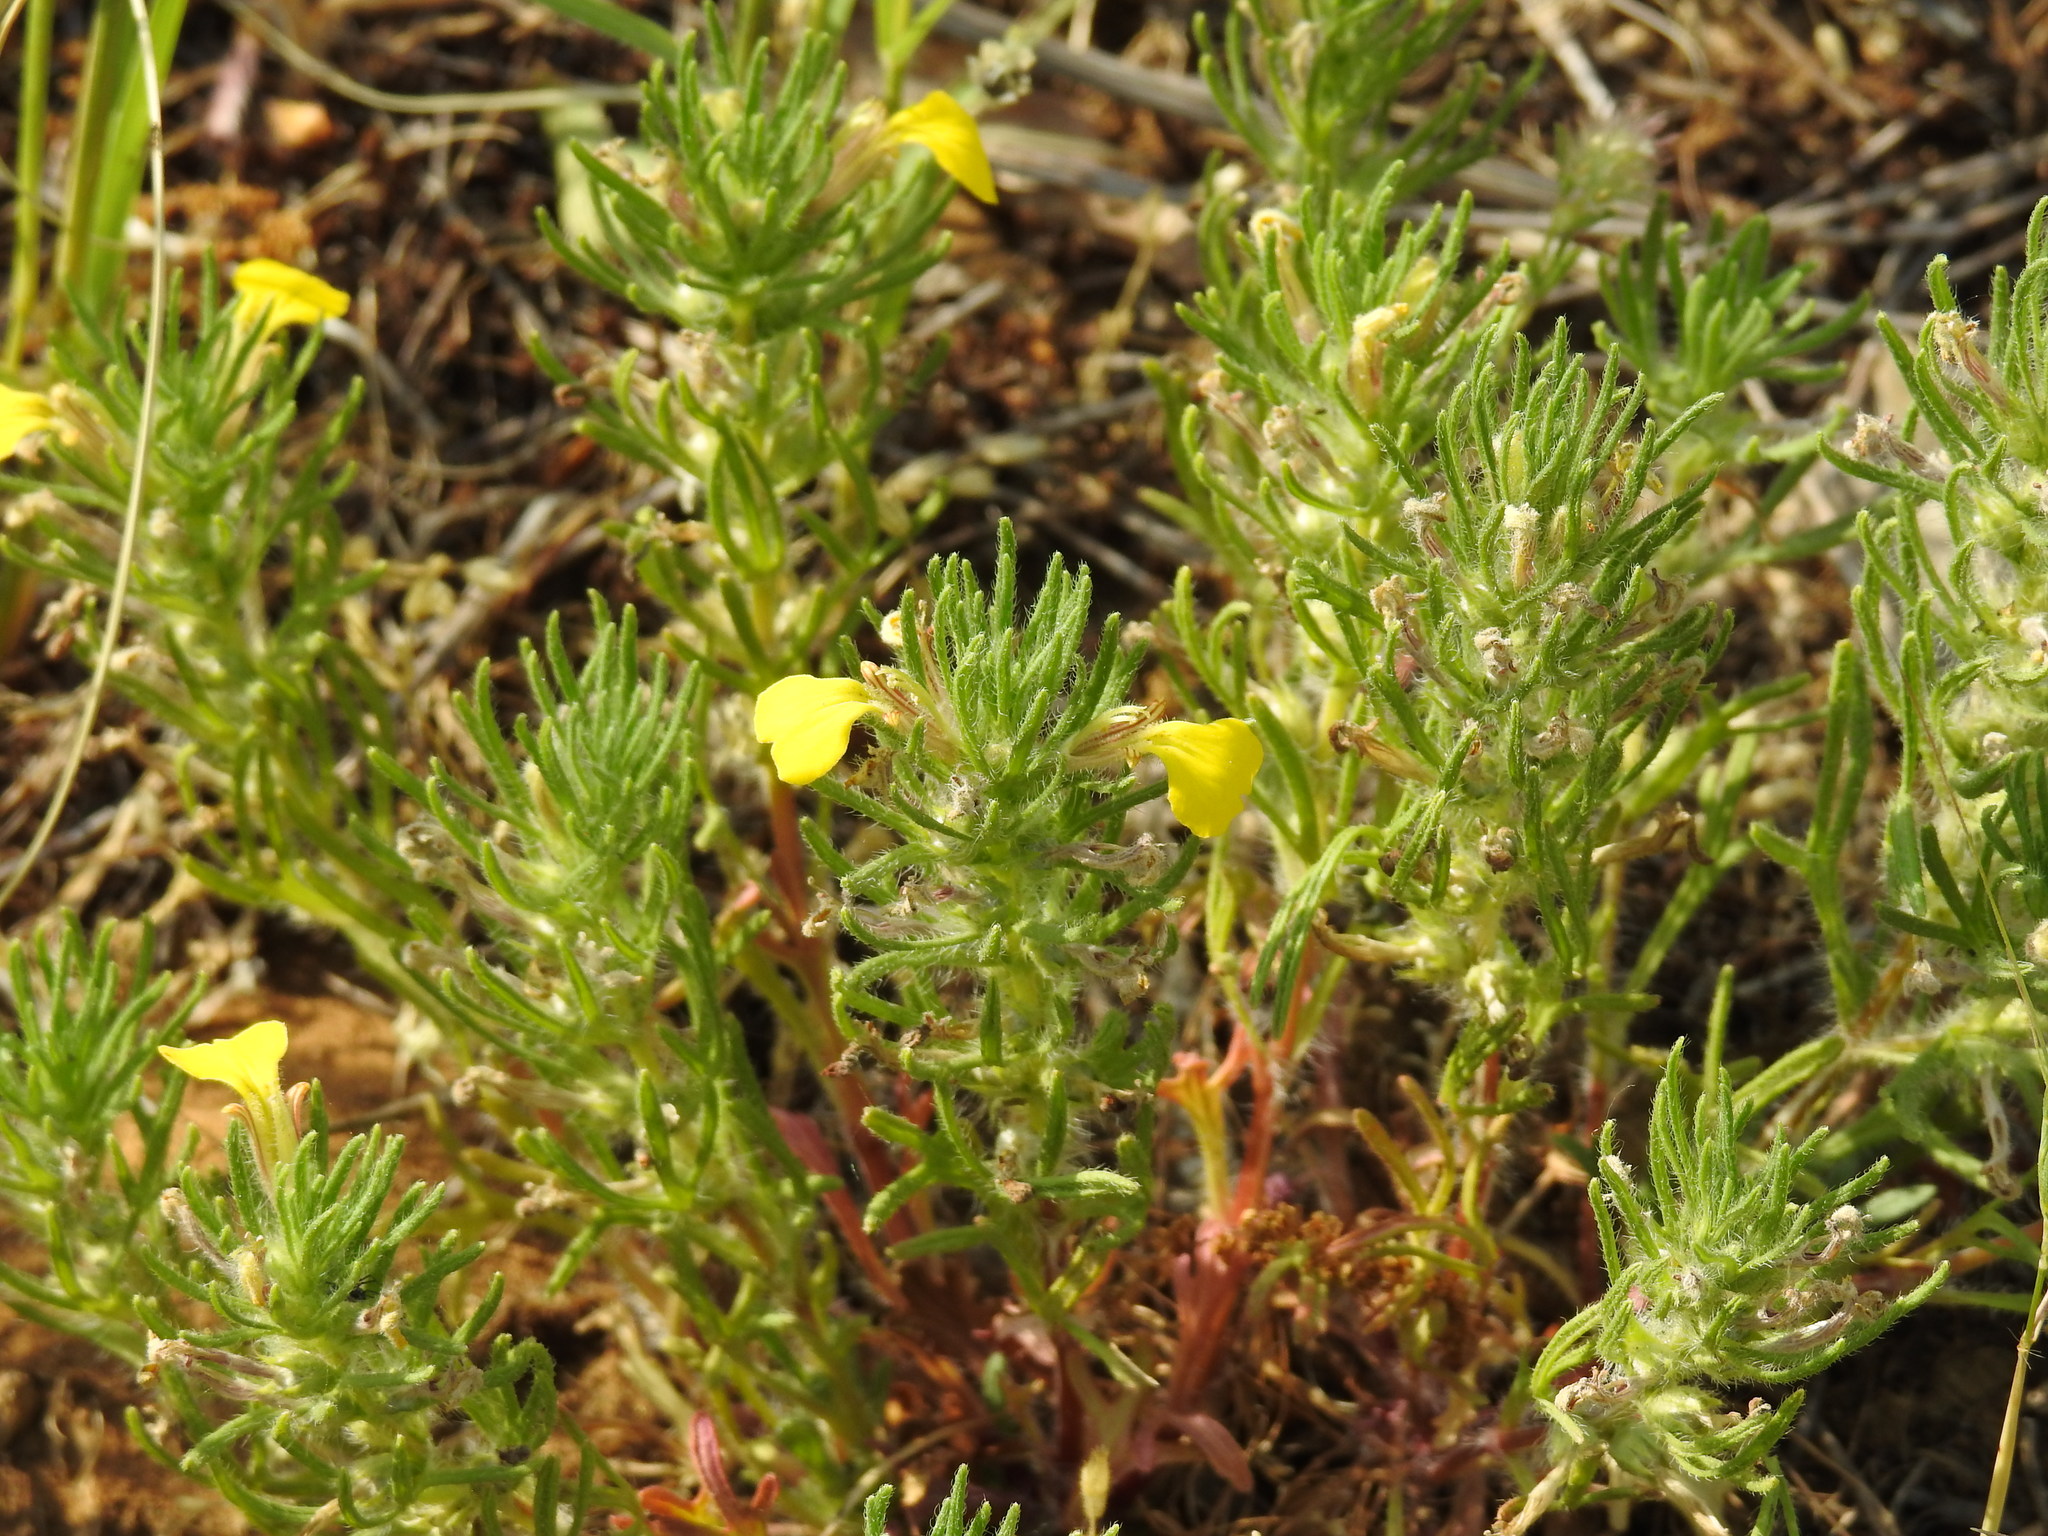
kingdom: Plantae
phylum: Tracheophyta
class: Magnoliopsida
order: Lamiales
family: Lamiaceae
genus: Ajuga
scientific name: Ajuga chamaepitys
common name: Ground-pine
